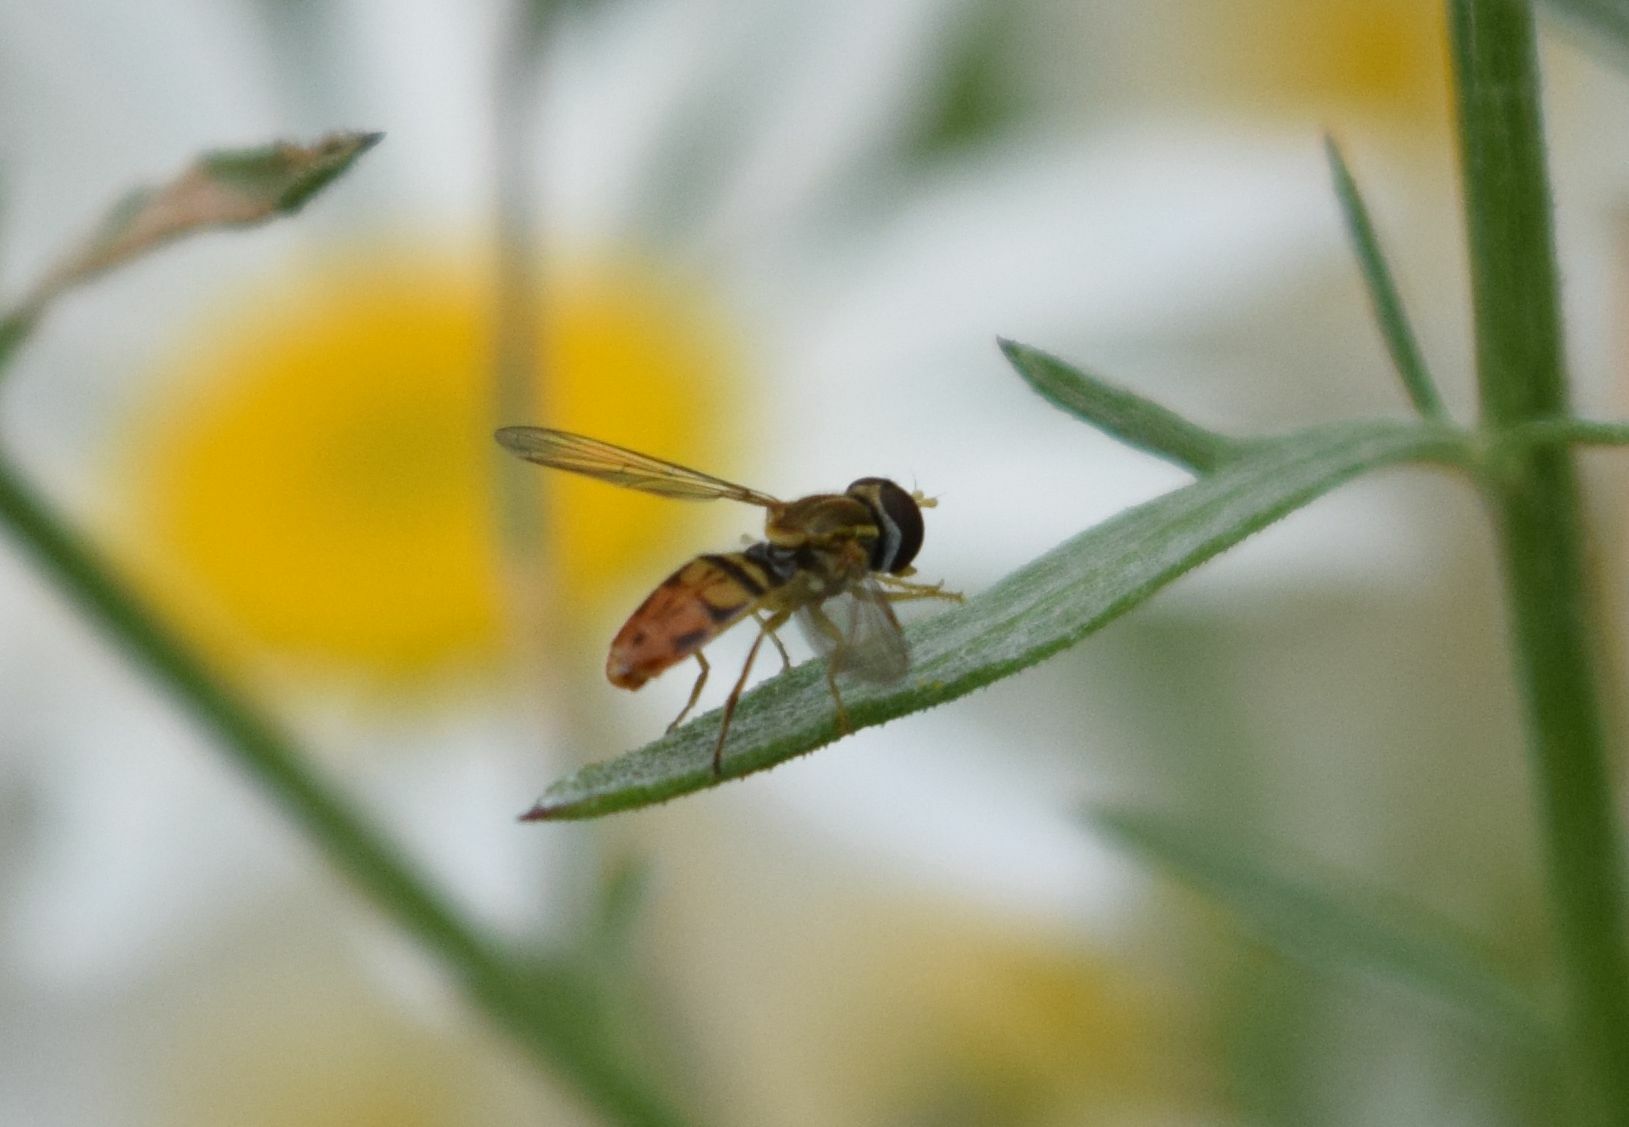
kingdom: Animalia
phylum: Arthropoda
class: Insecta
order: Diptera
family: Syrphidae
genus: Toxomerus
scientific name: Toxomerus marginatus
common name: Syrphid fly
